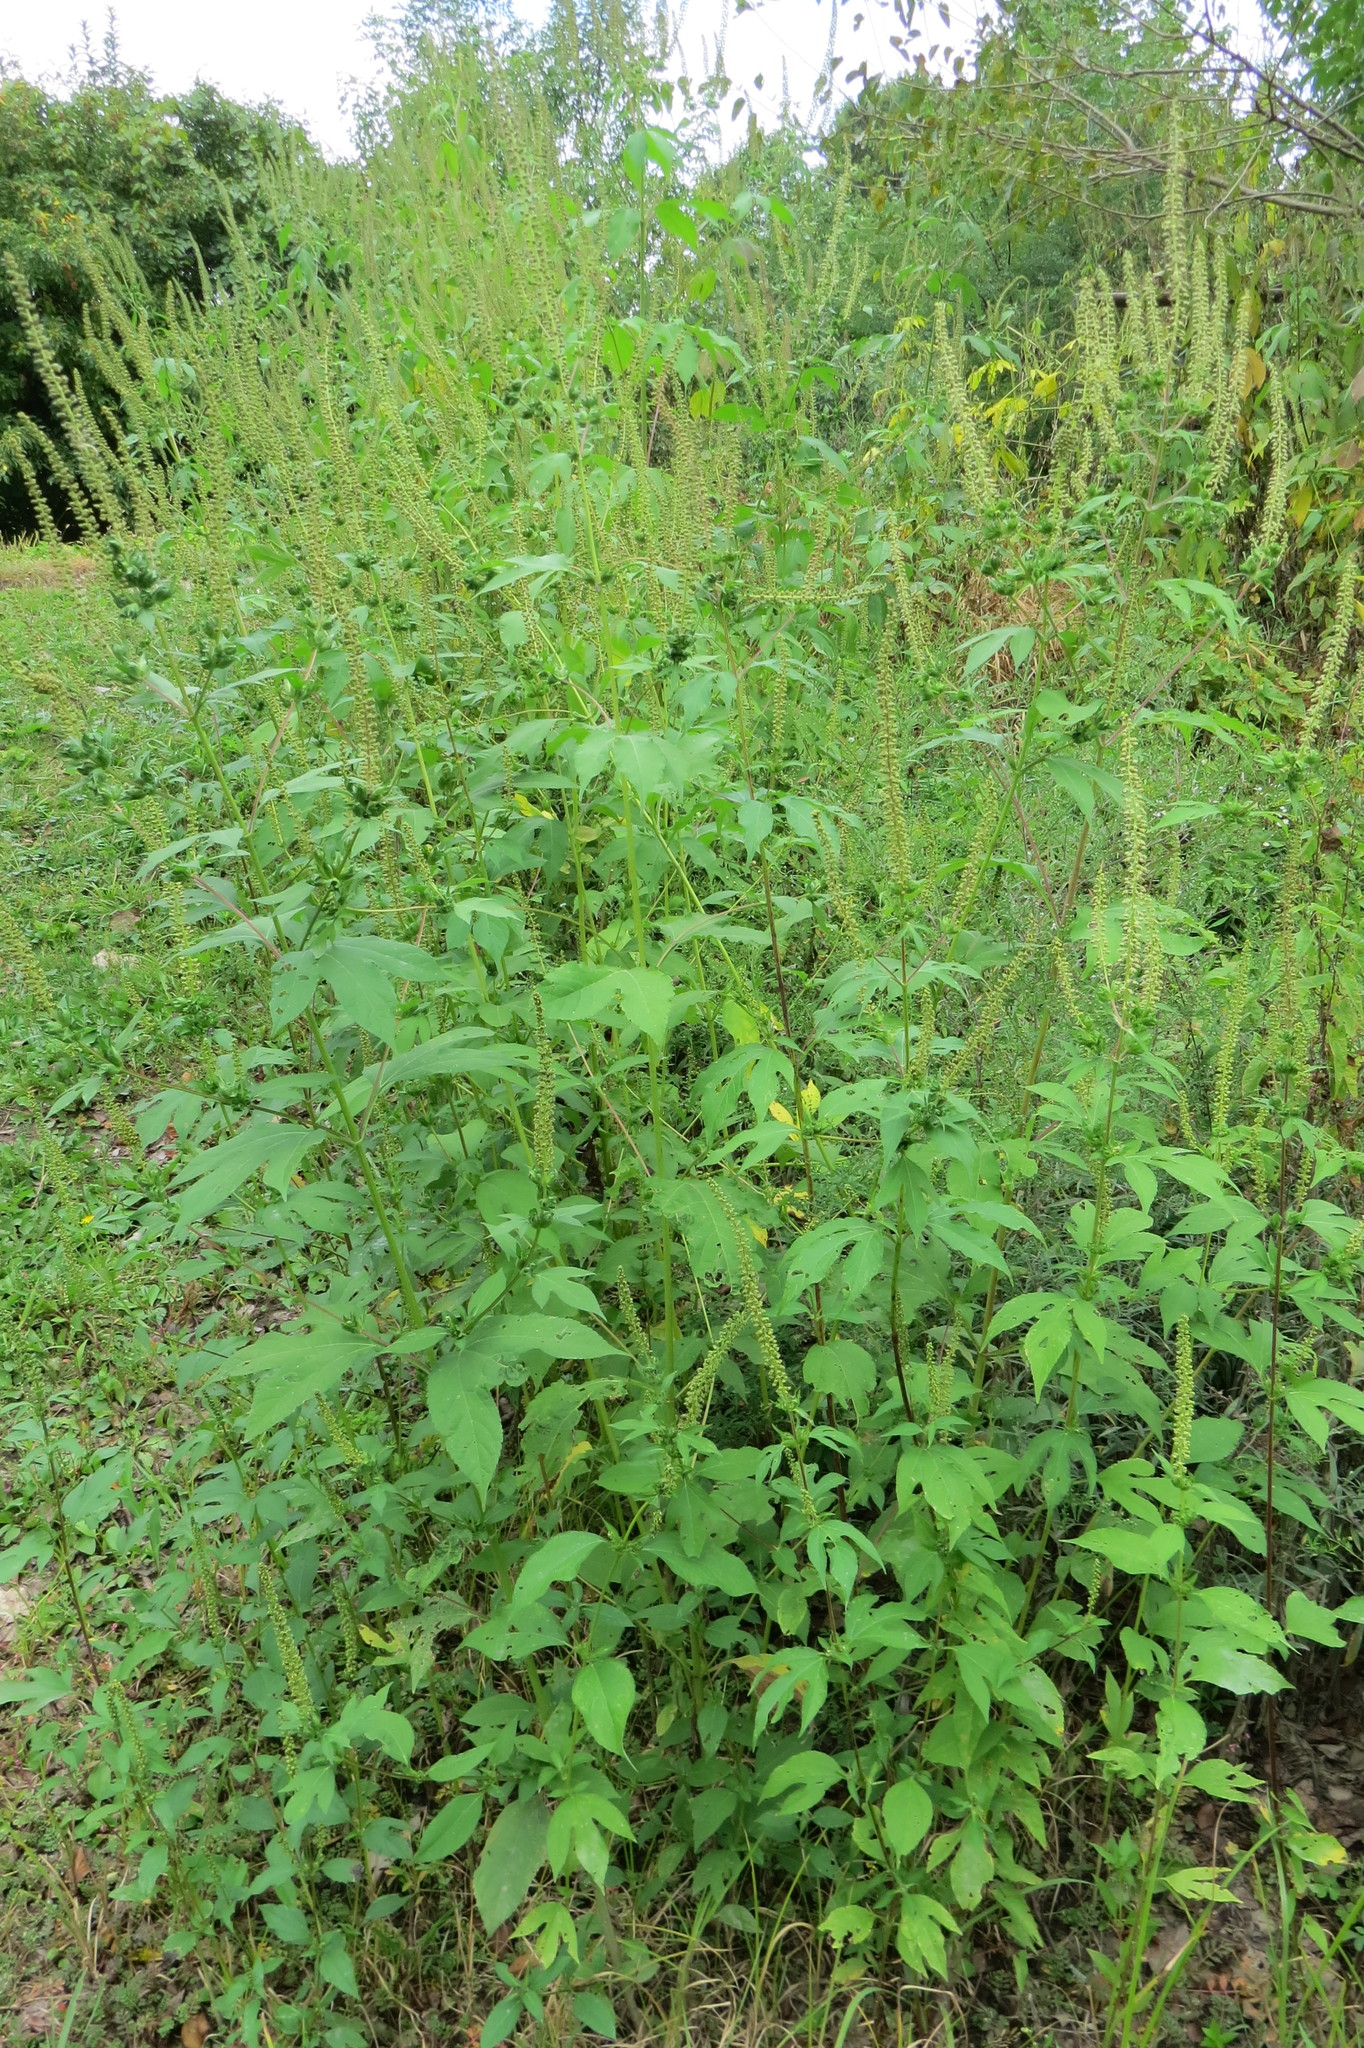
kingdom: Plantae
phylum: Tracheophyta
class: Magnoliopsida
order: Asterales
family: Asteraceae
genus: Ambrosia
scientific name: Ambrosia trifida
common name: Giant ragweed
